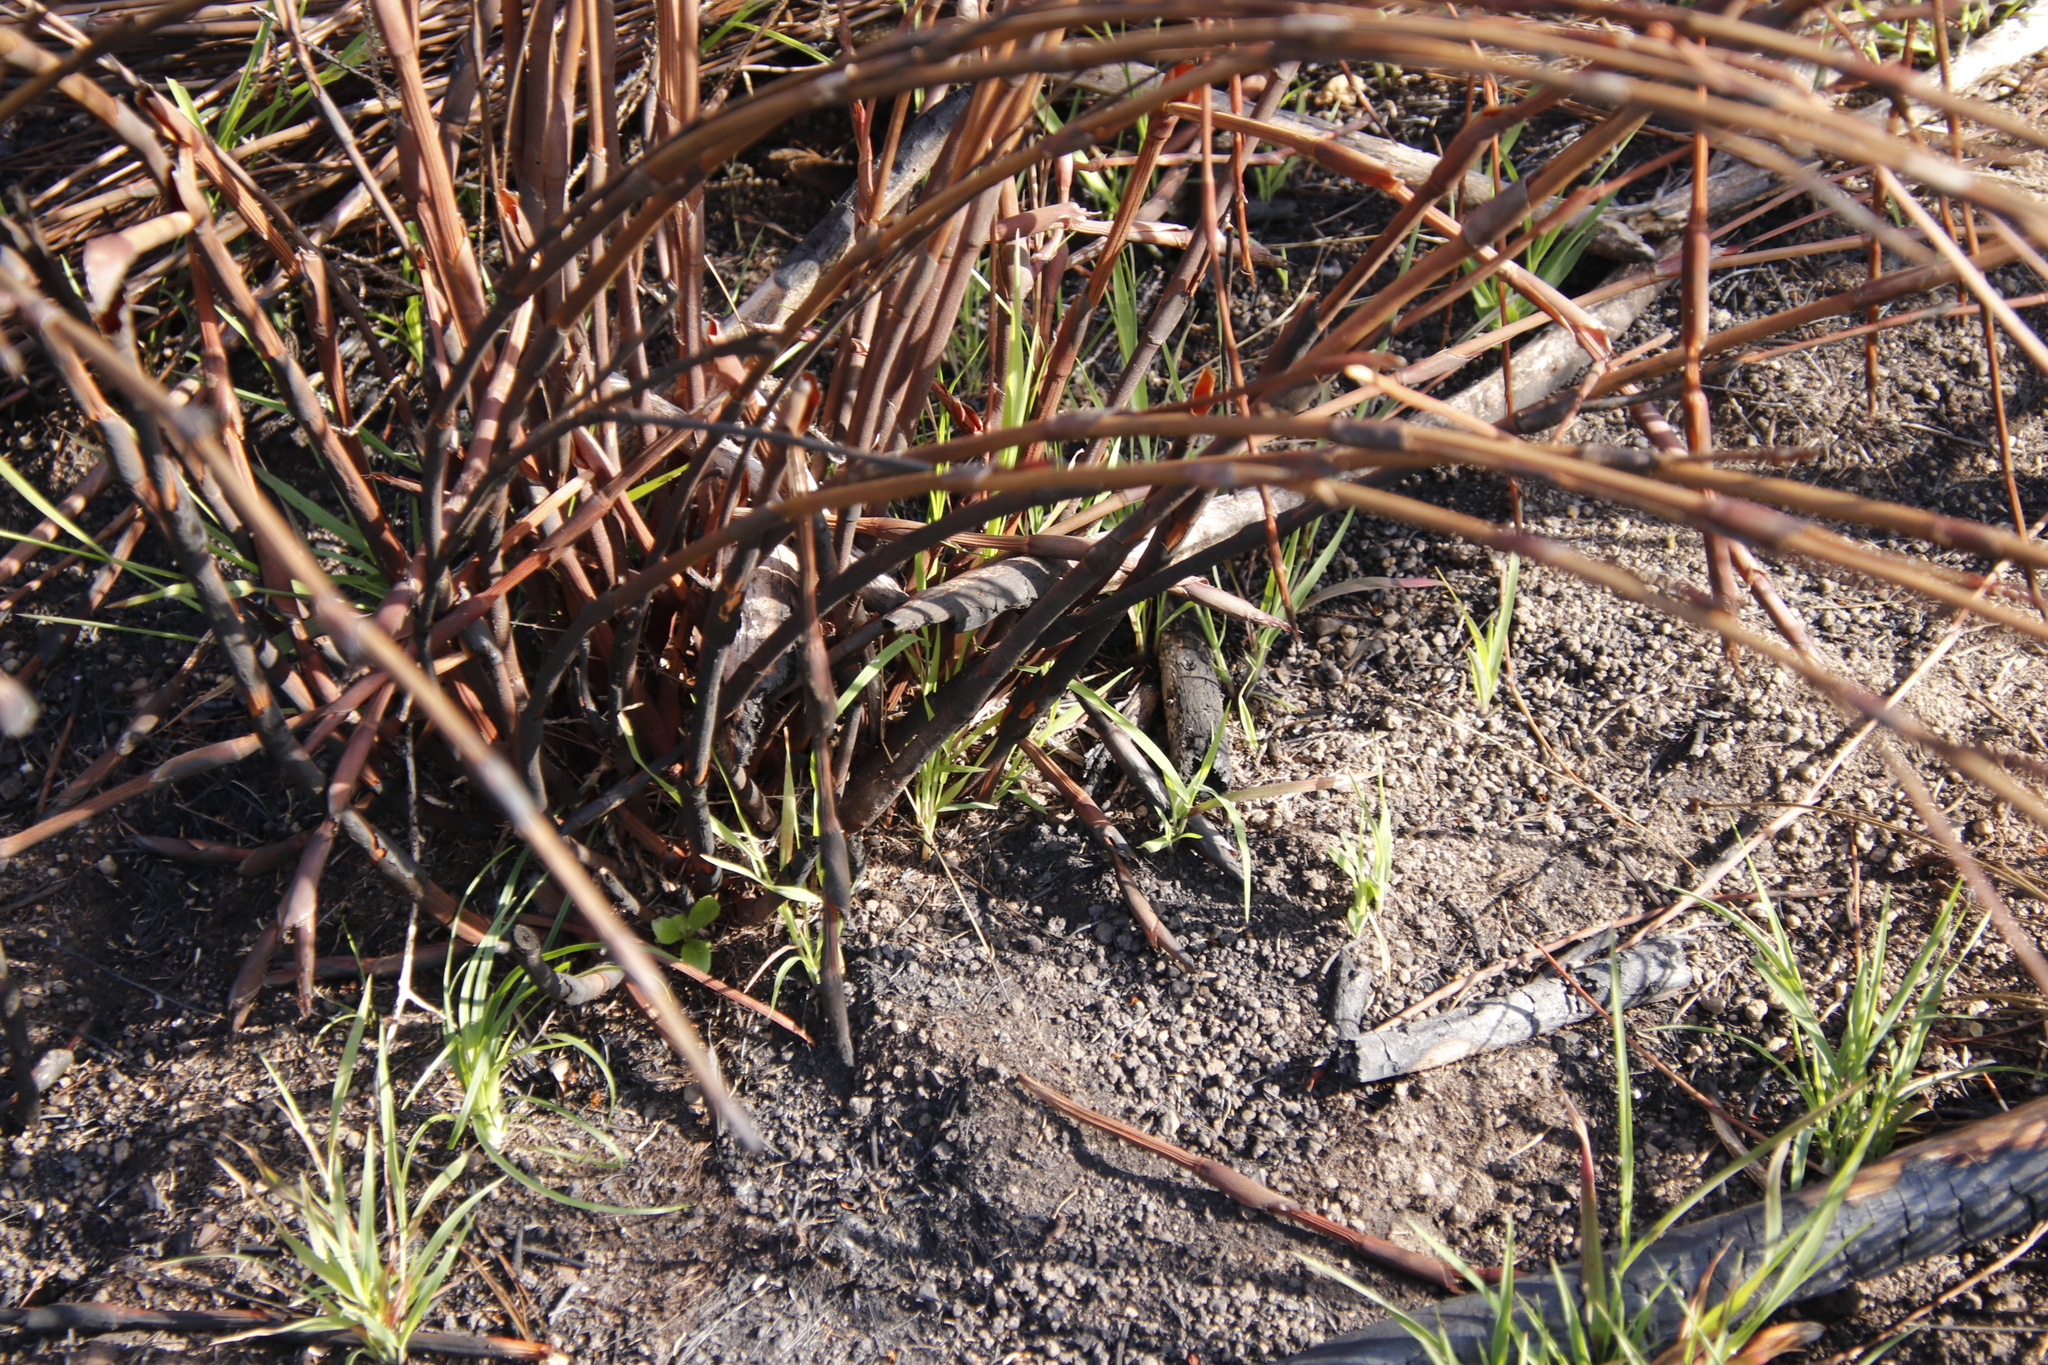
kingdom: Plantae
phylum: Tracheophyta
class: Liliopsida
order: Poales
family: Restionaceae
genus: Cannomois
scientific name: Cannomois virgata
